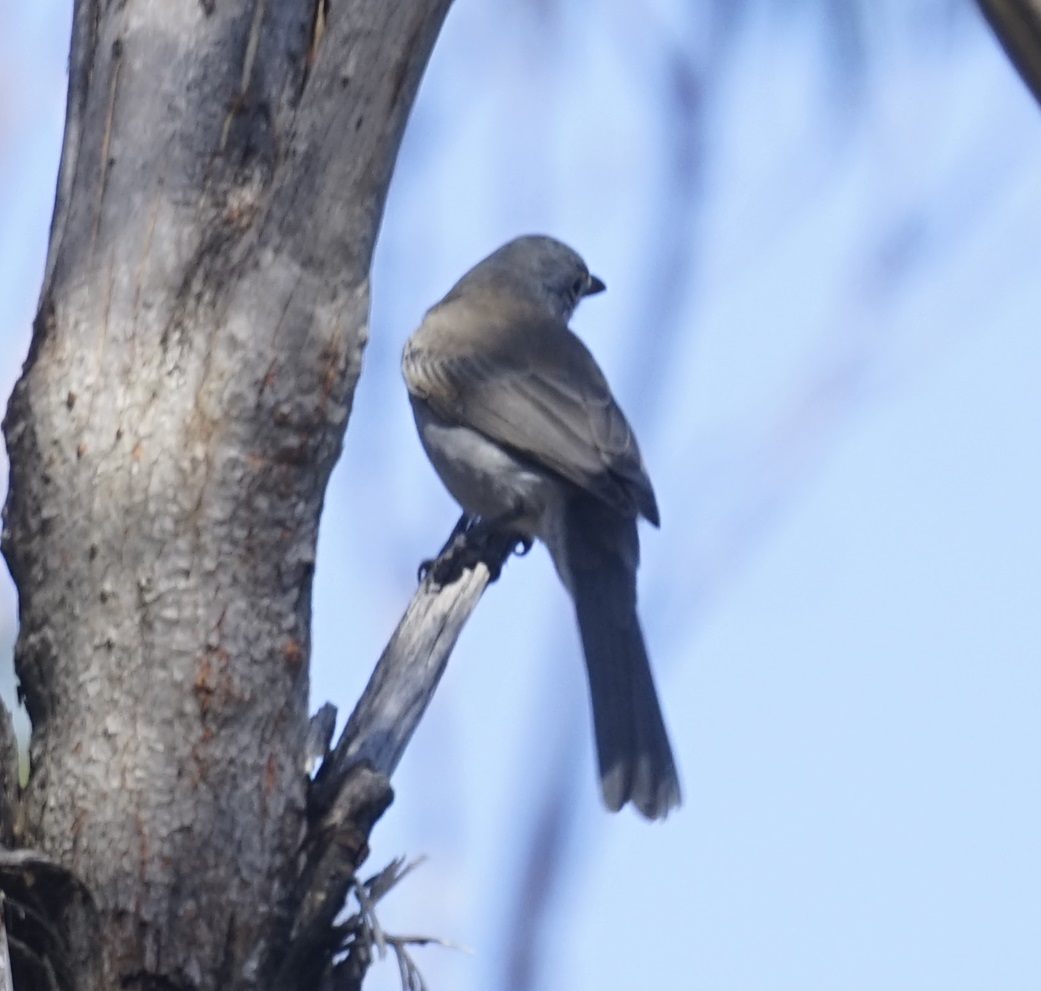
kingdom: Animalia
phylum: Chordata
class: Aves
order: Passeriformes
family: Pachycephalidae
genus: Colluricincla
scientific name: Colluricincla harmonica
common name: Grey shrikethrush
